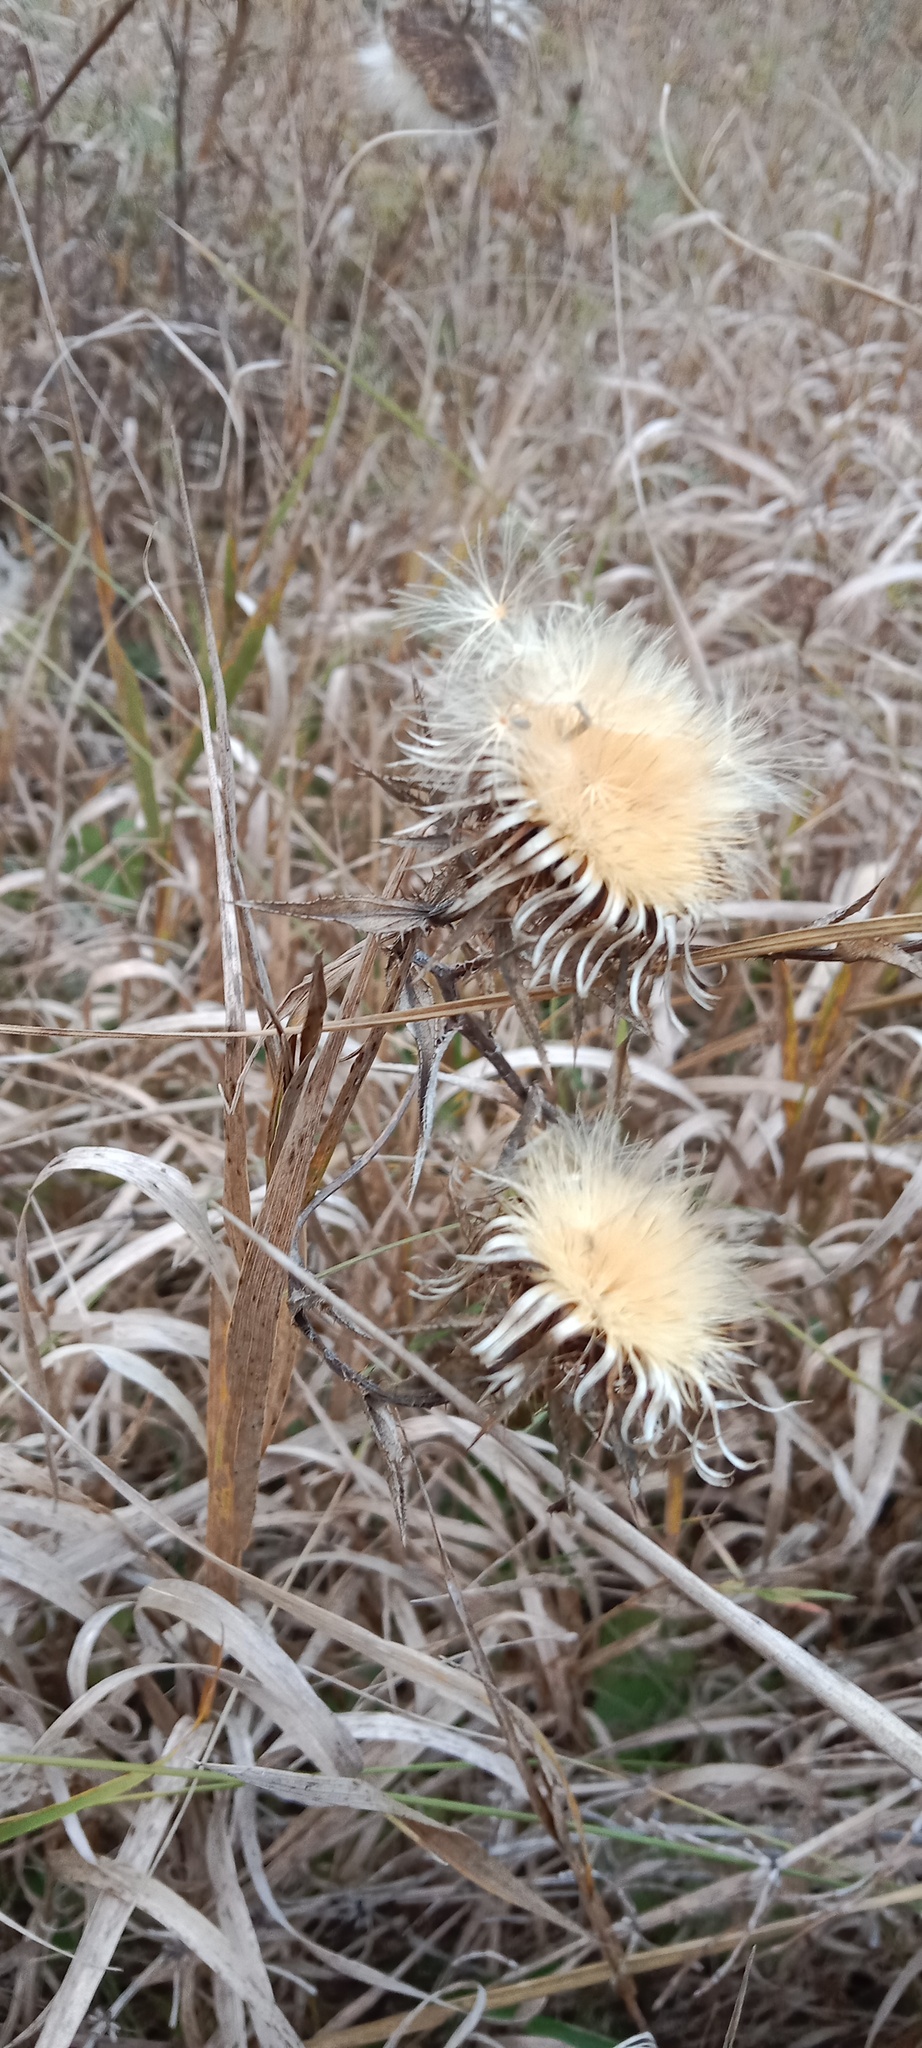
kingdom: Plantae
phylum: Tracheophyta
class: Magnoliopsida
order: Asterales
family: Asteraceae
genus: Cirsium
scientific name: Cirsium arvense
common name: Creeping thistle
